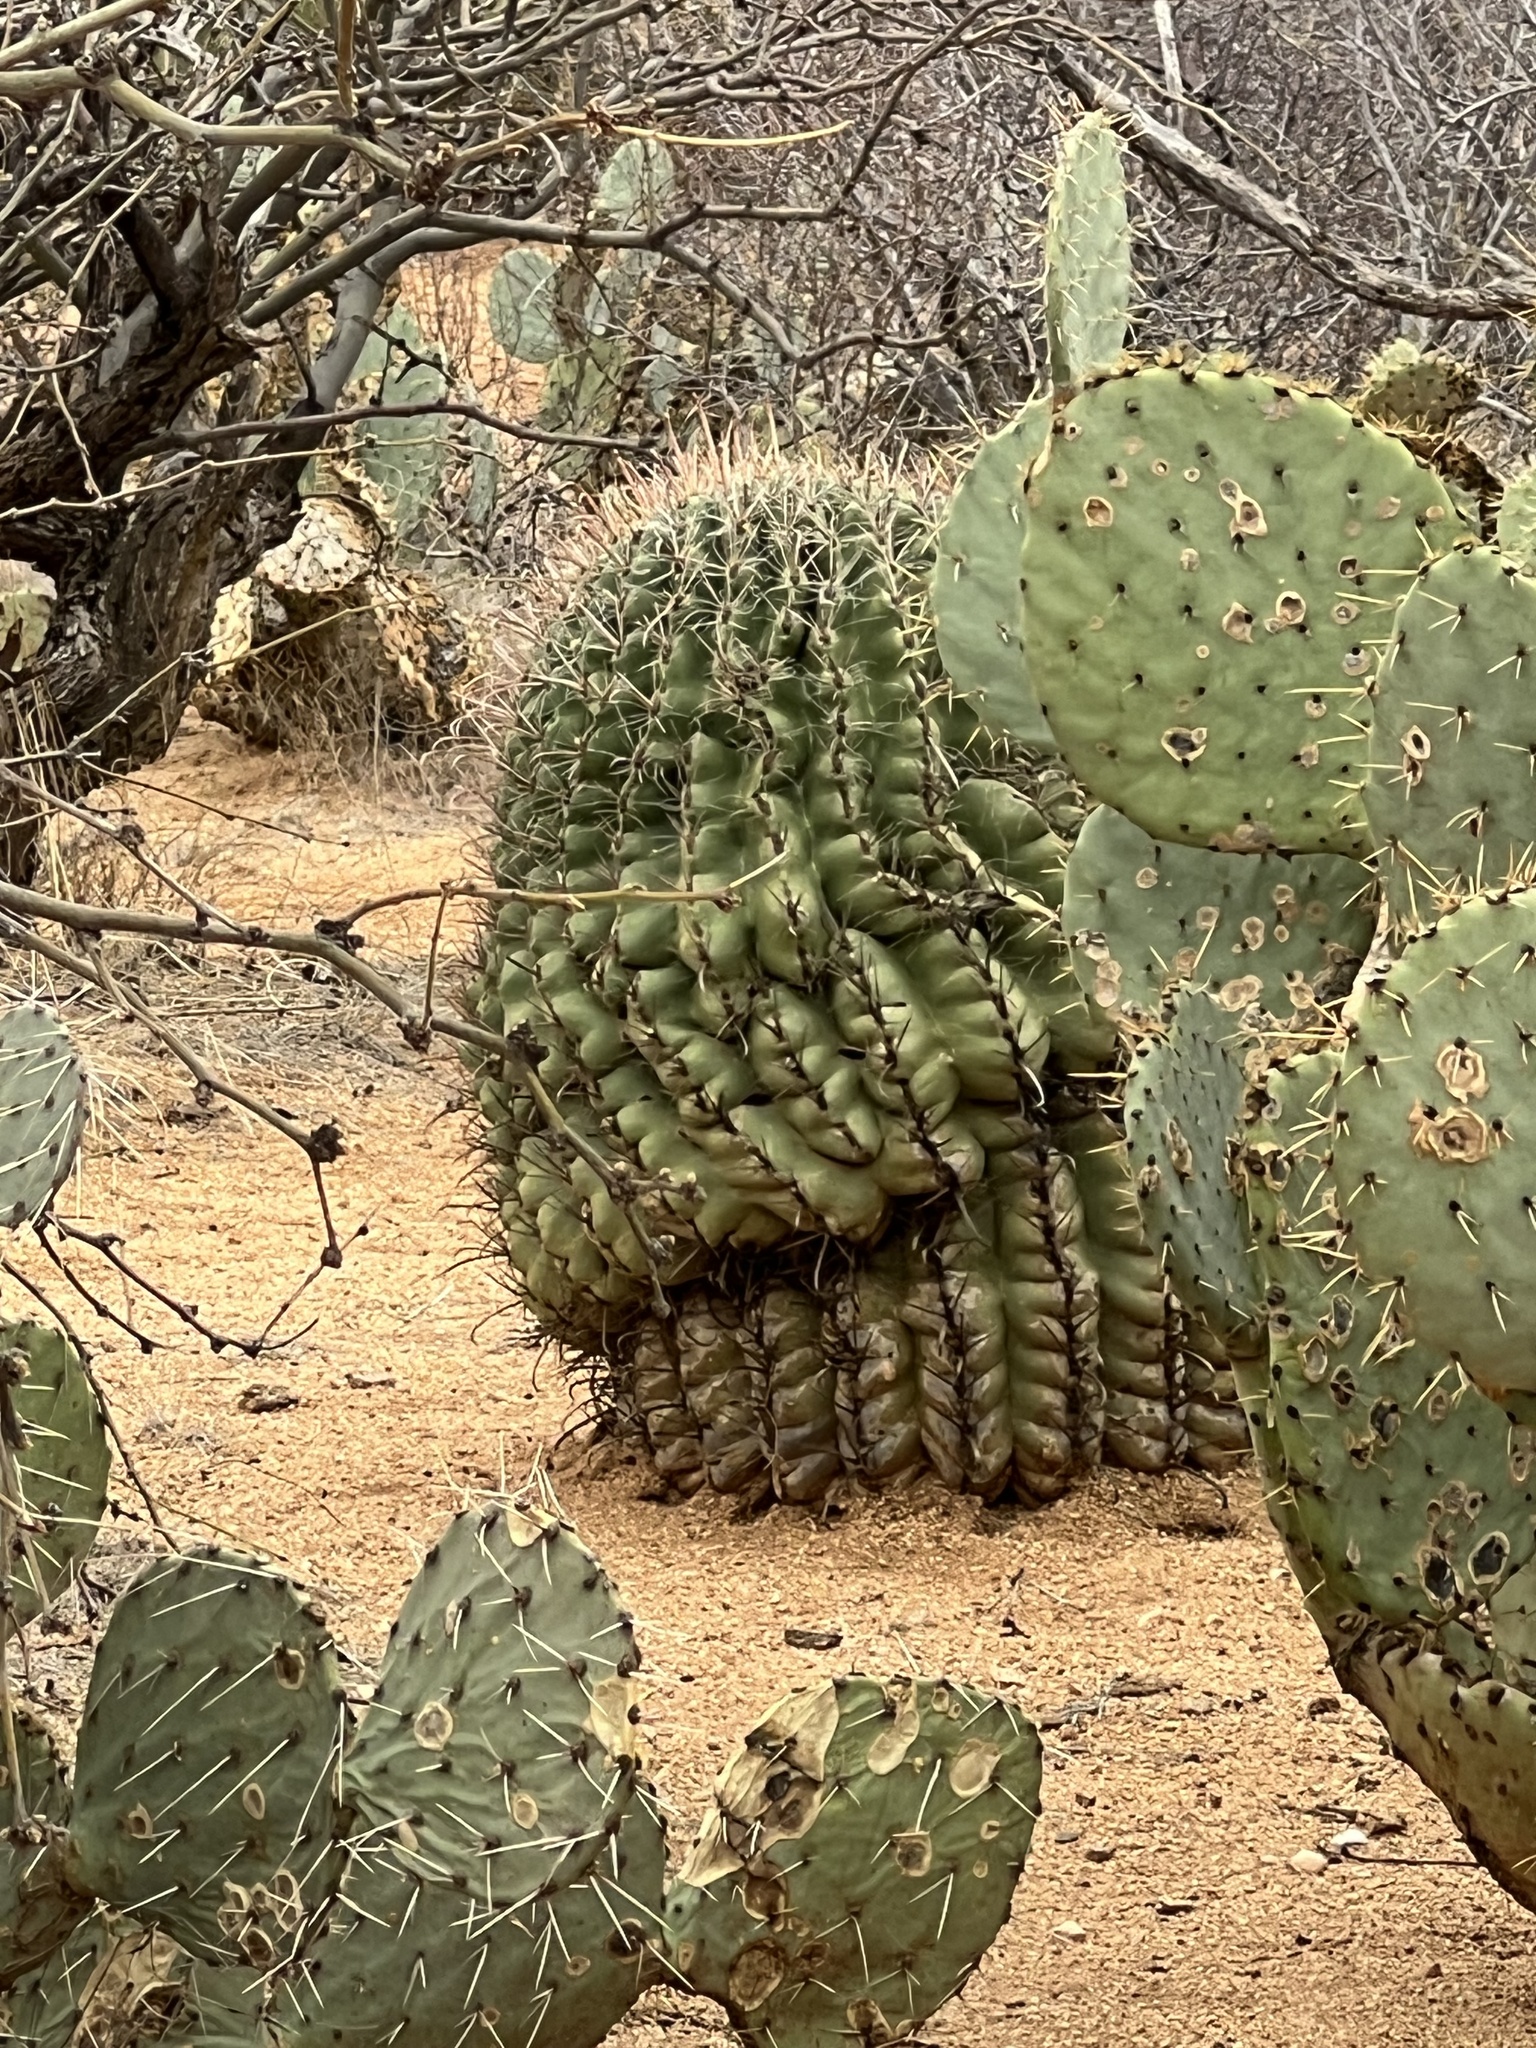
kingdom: Plantae
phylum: Tracheophyta
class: Magnoliopsida
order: Caryophyllales
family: Cactaceae
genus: Ferocactus
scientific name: Ferocactus wislizeni
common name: Candy barrel cactus
